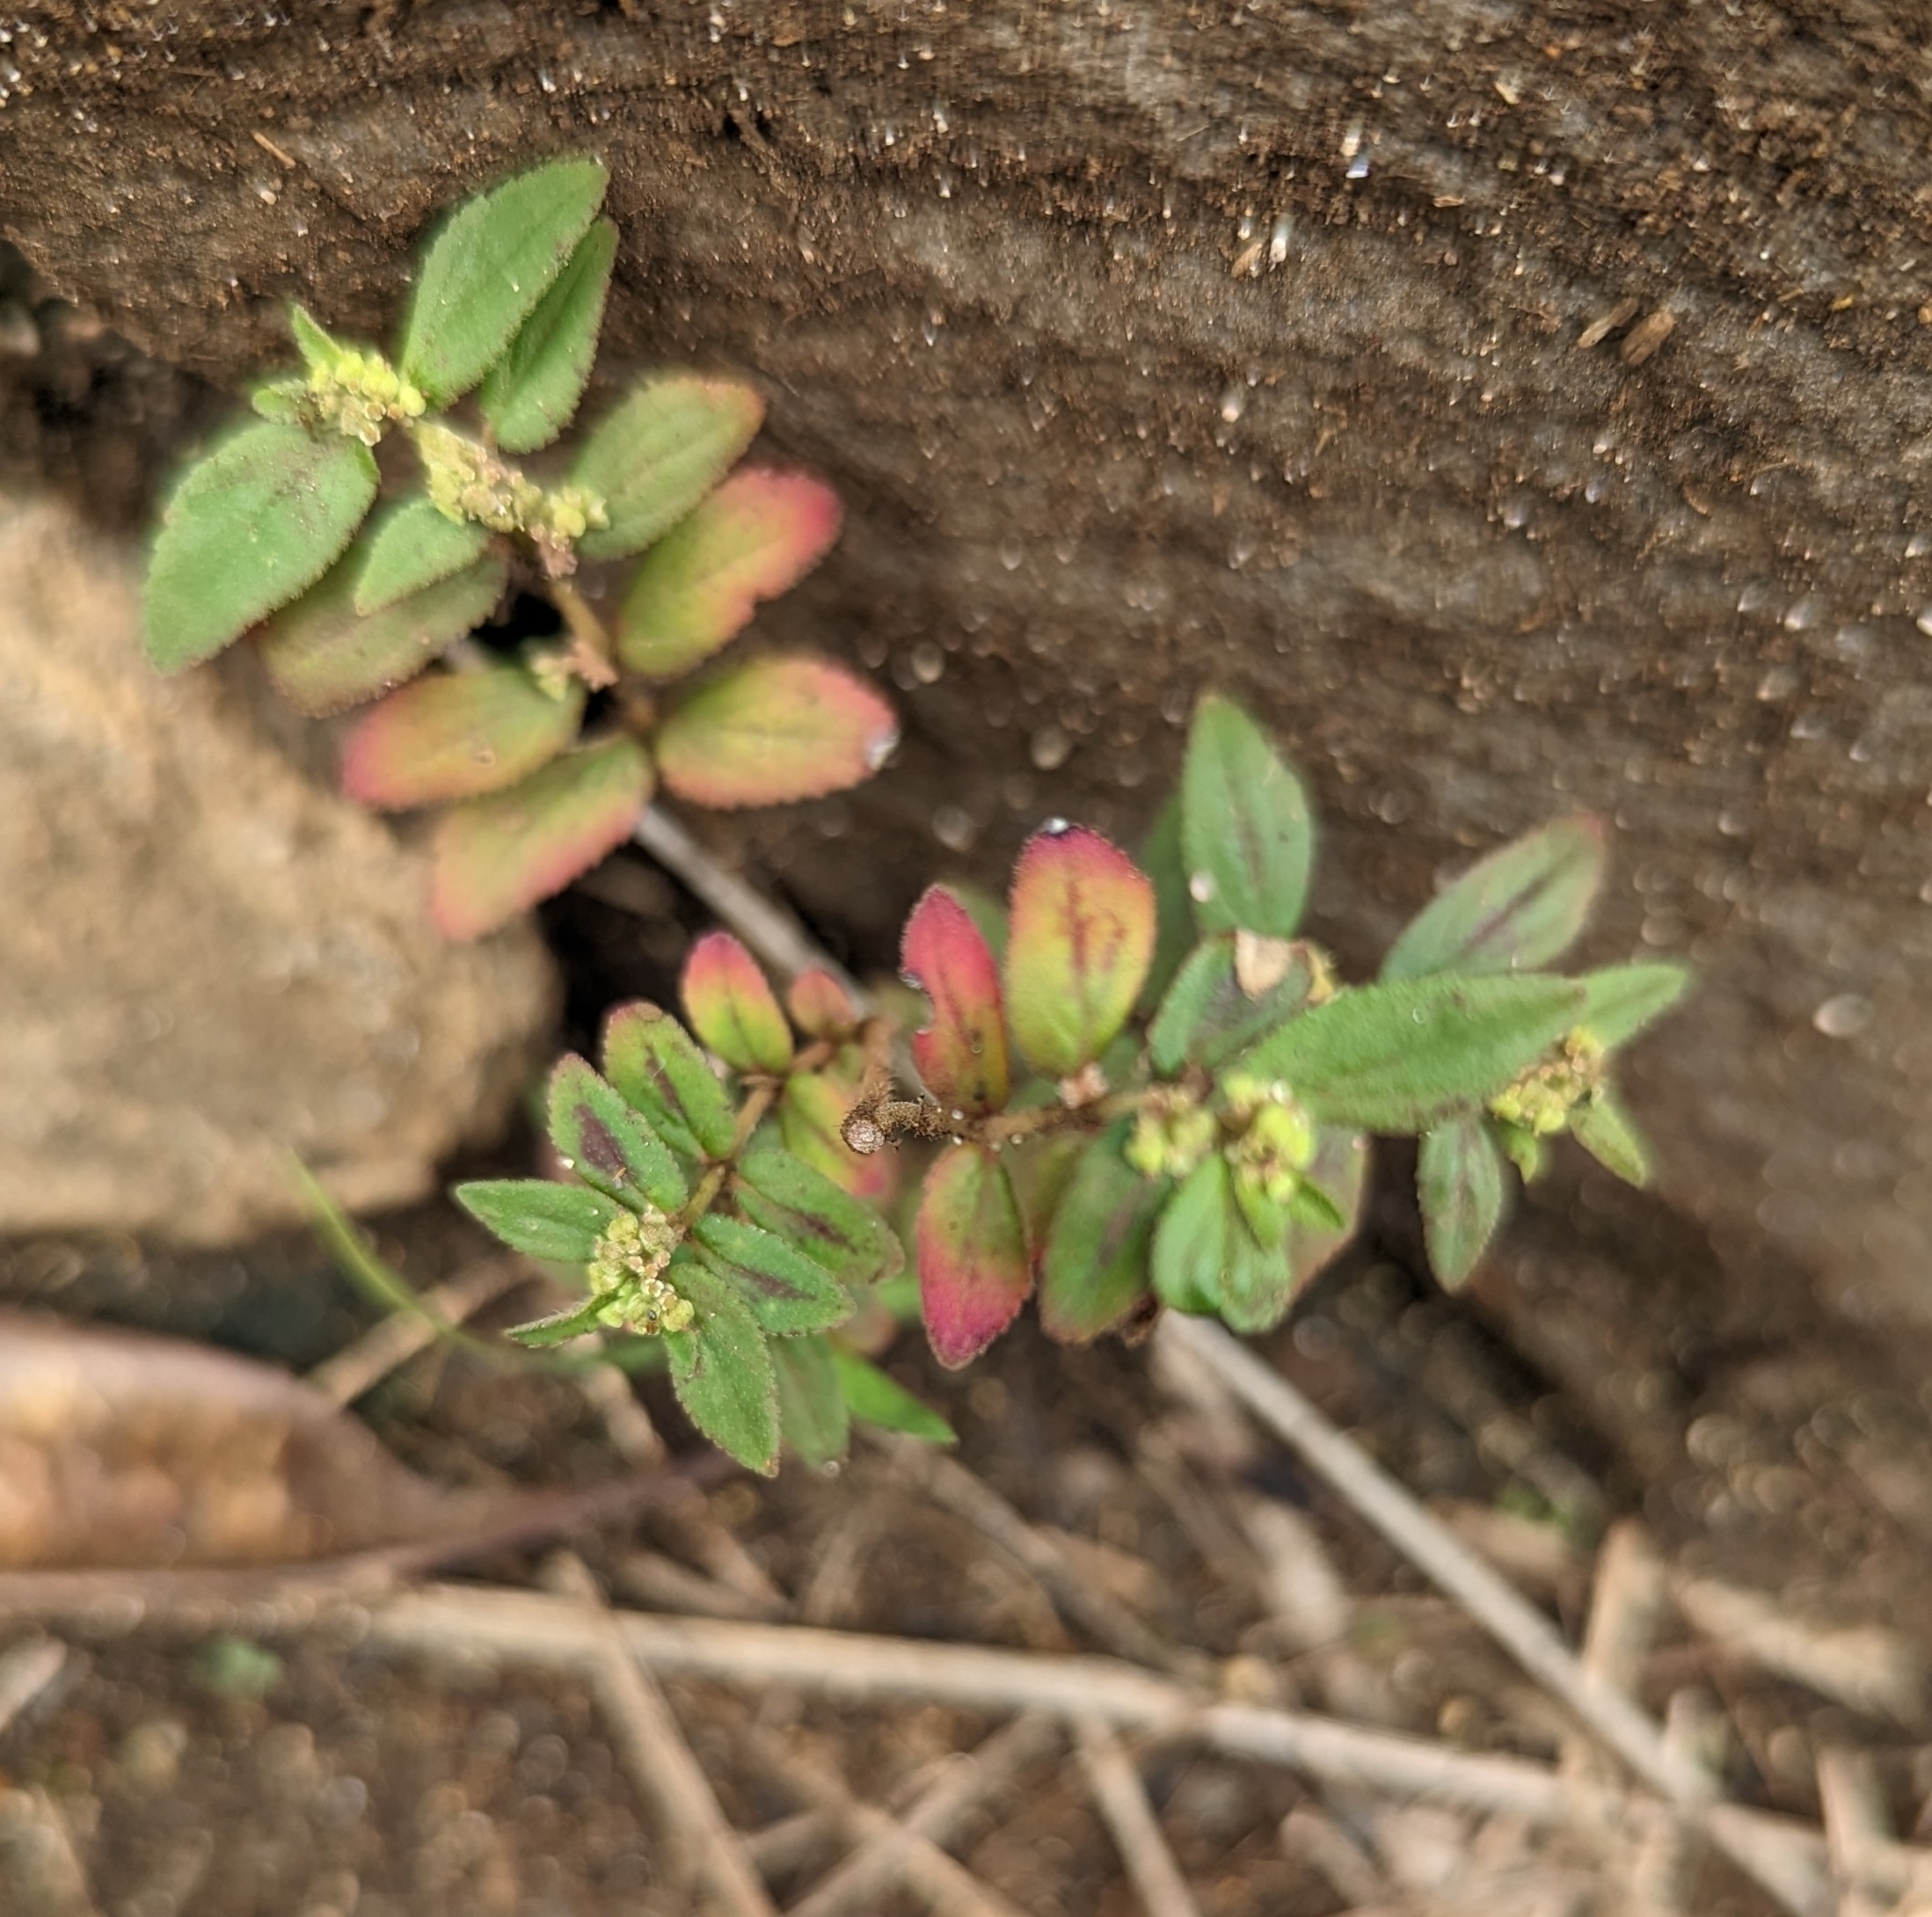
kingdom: Plantae
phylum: Tracheophyta
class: Magnoliopsida
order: Malpighiales
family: Euphorbiaceae
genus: Euphorbia
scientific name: Euphorbia hirta
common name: Pillpod sandmat
